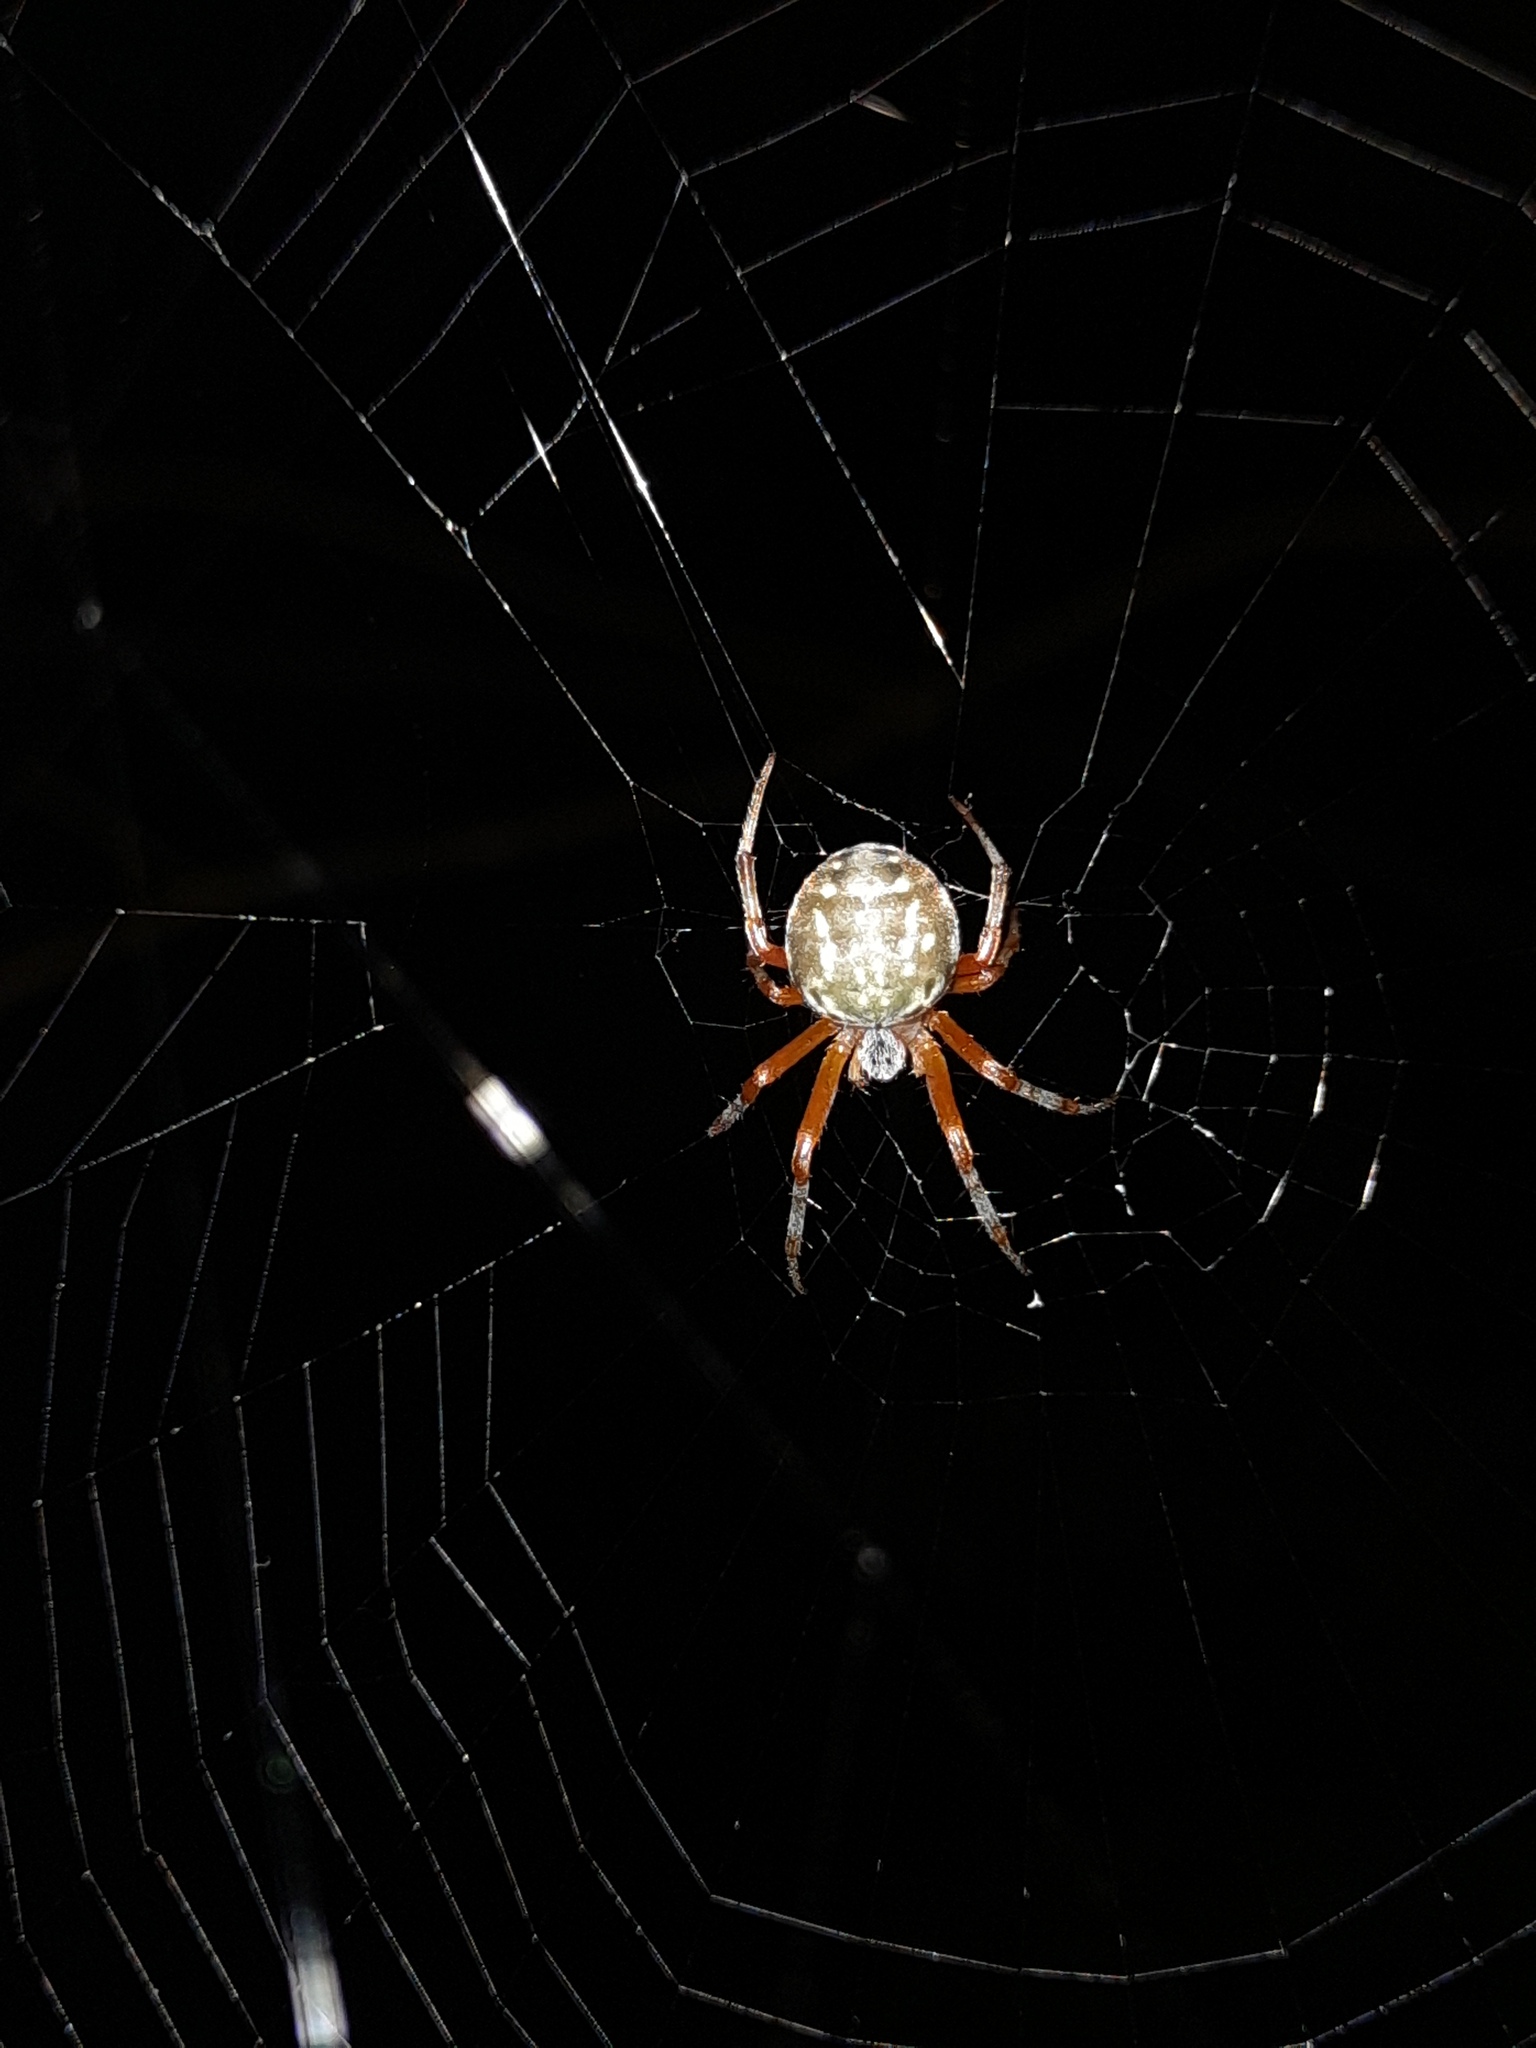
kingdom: Animalia
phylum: Arthropoda
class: Arachnida
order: Araneae
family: Araneidae
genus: Araneus
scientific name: Araneus workmani
